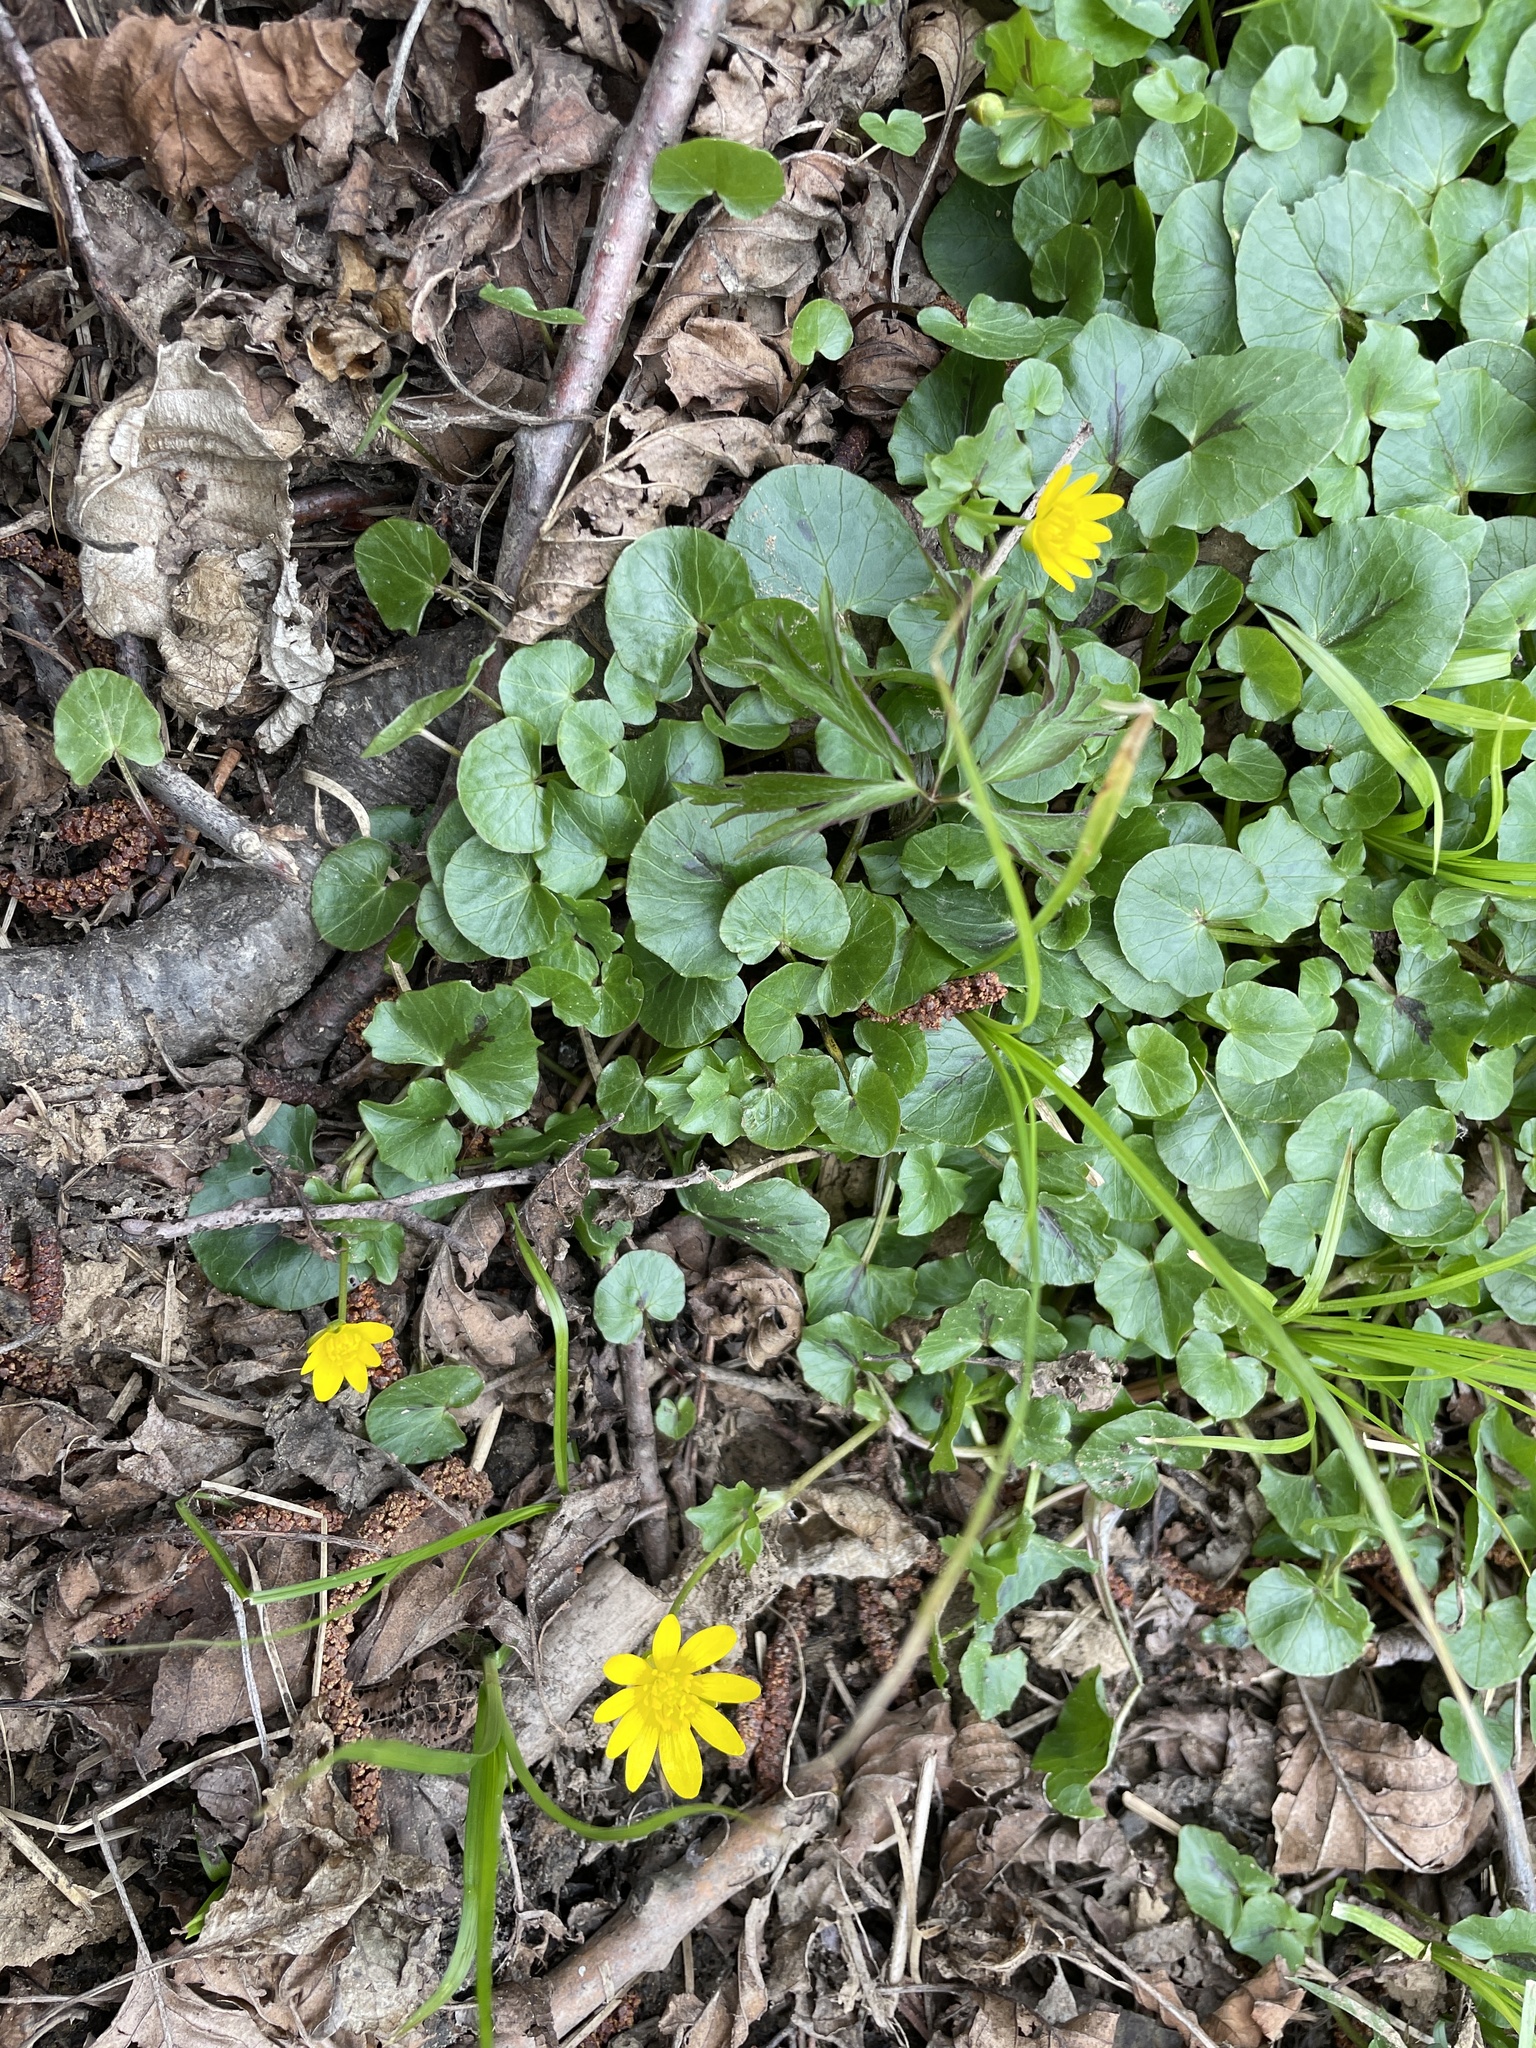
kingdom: Plantae
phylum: Tracheophyta
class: Magnoliopsida
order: Ranunculales
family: Ranunculaceae
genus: Ficaria
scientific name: Ficaria verna
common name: Lesser celandine
